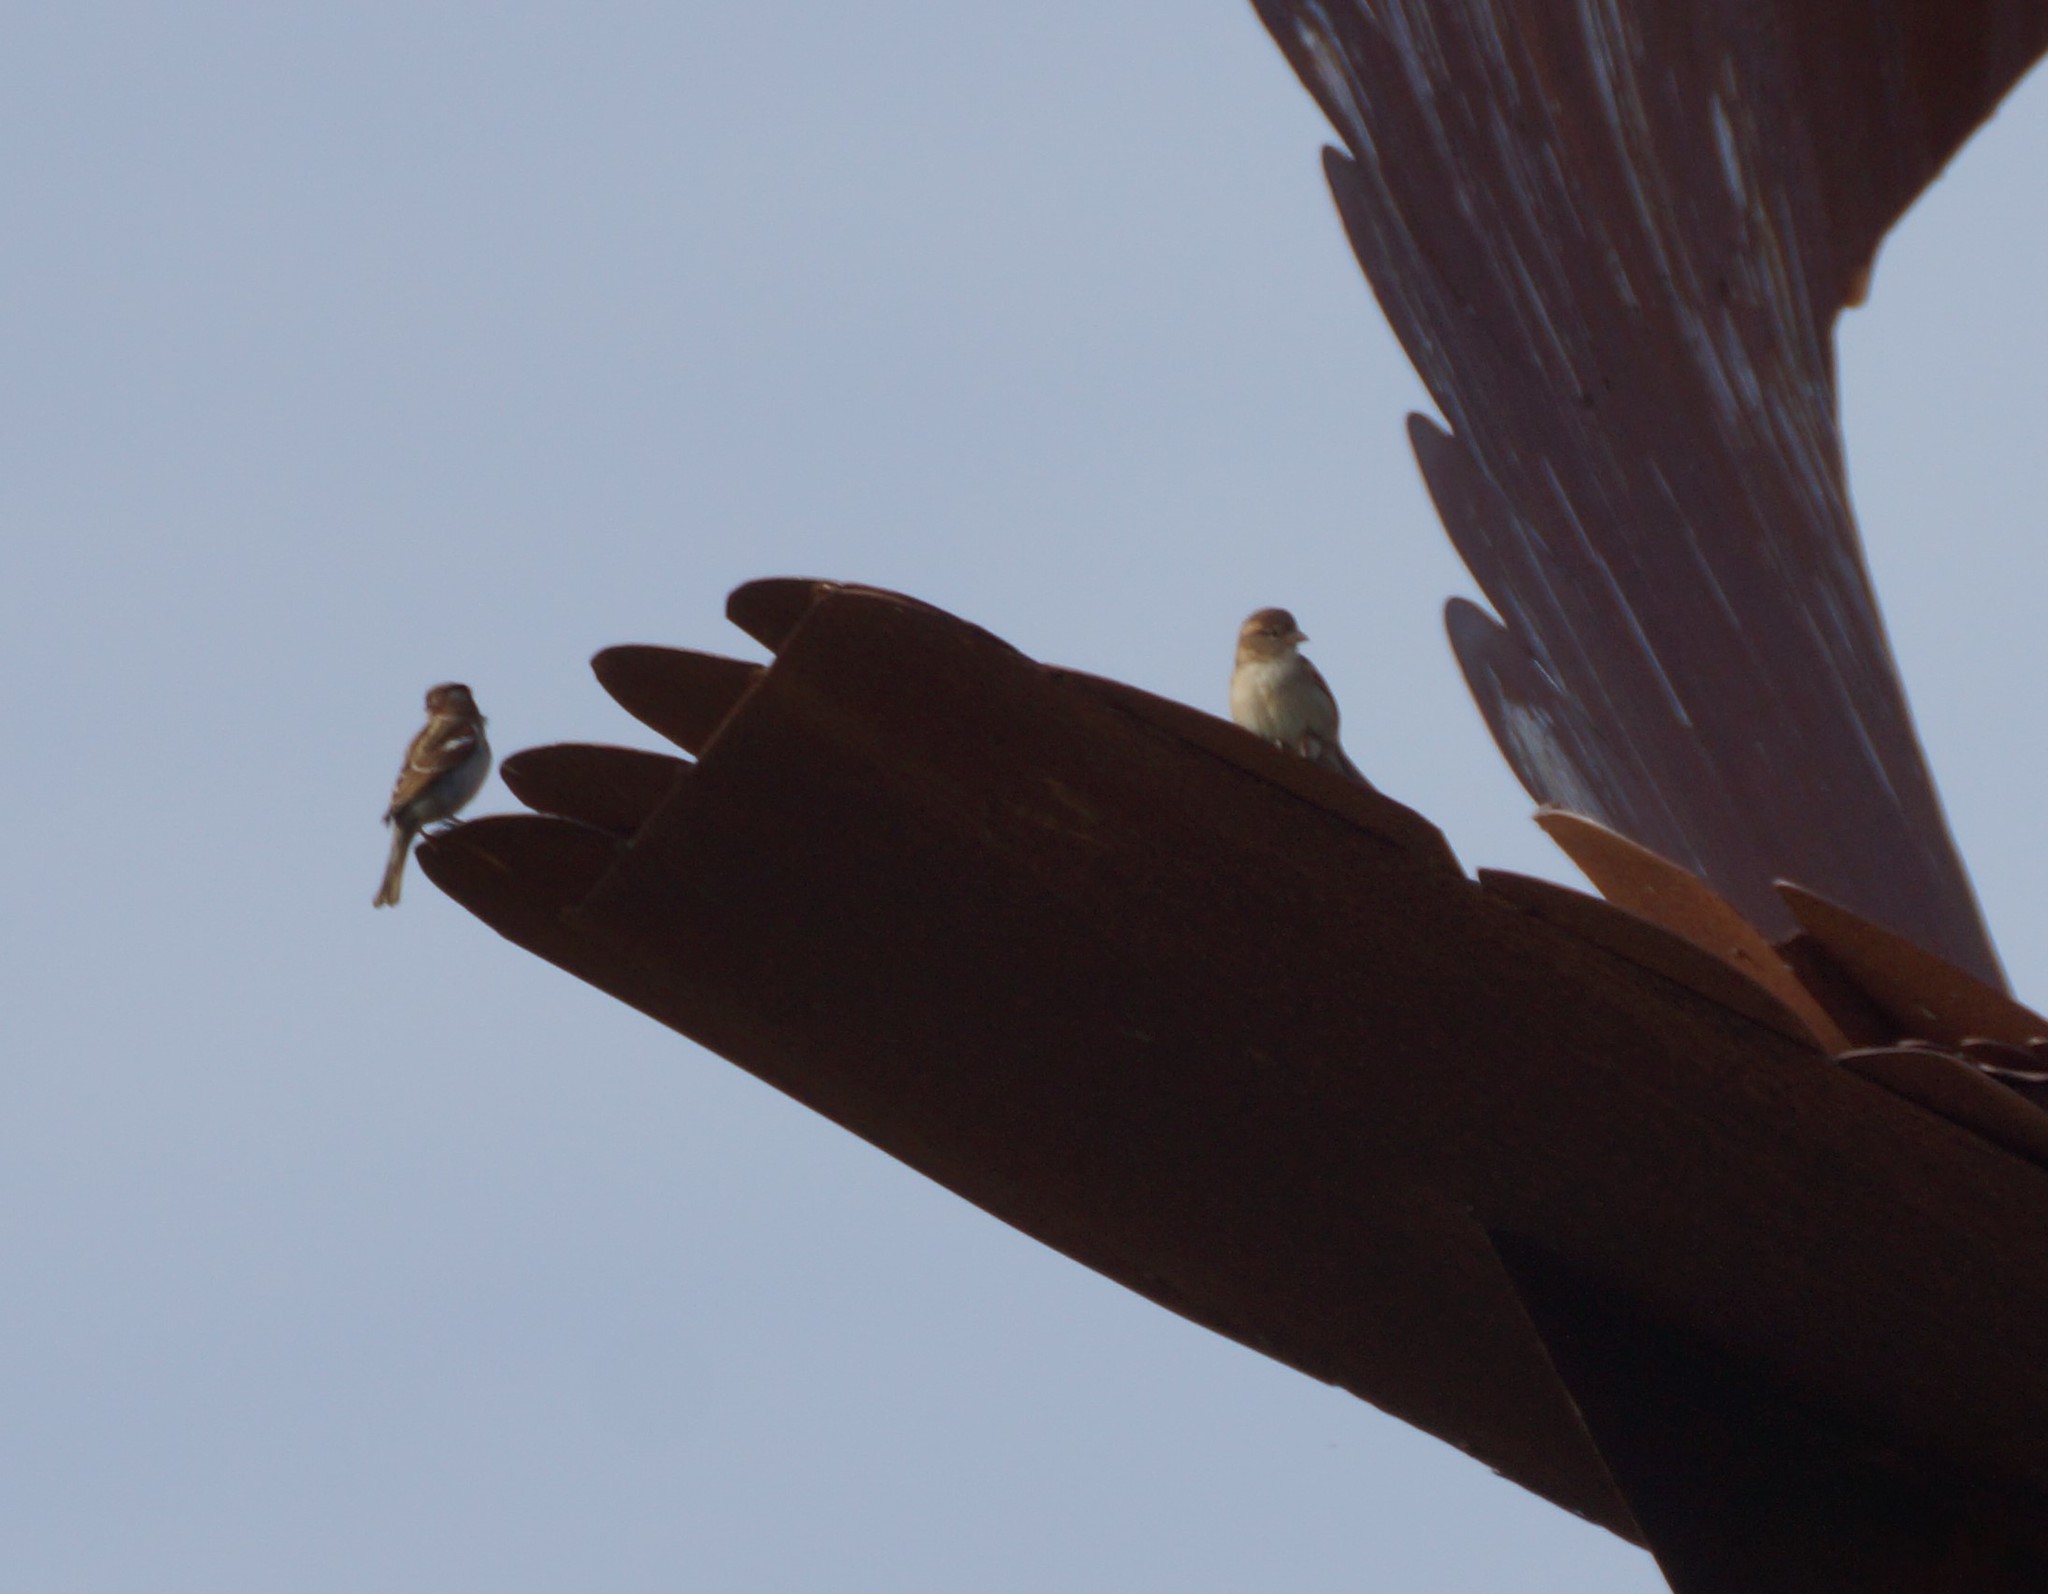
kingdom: Animalia
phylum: Chordata
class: Aves
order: Passeriformes
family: Passeridae
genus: Passer
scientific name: Passer domesticus
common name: House sparrow
